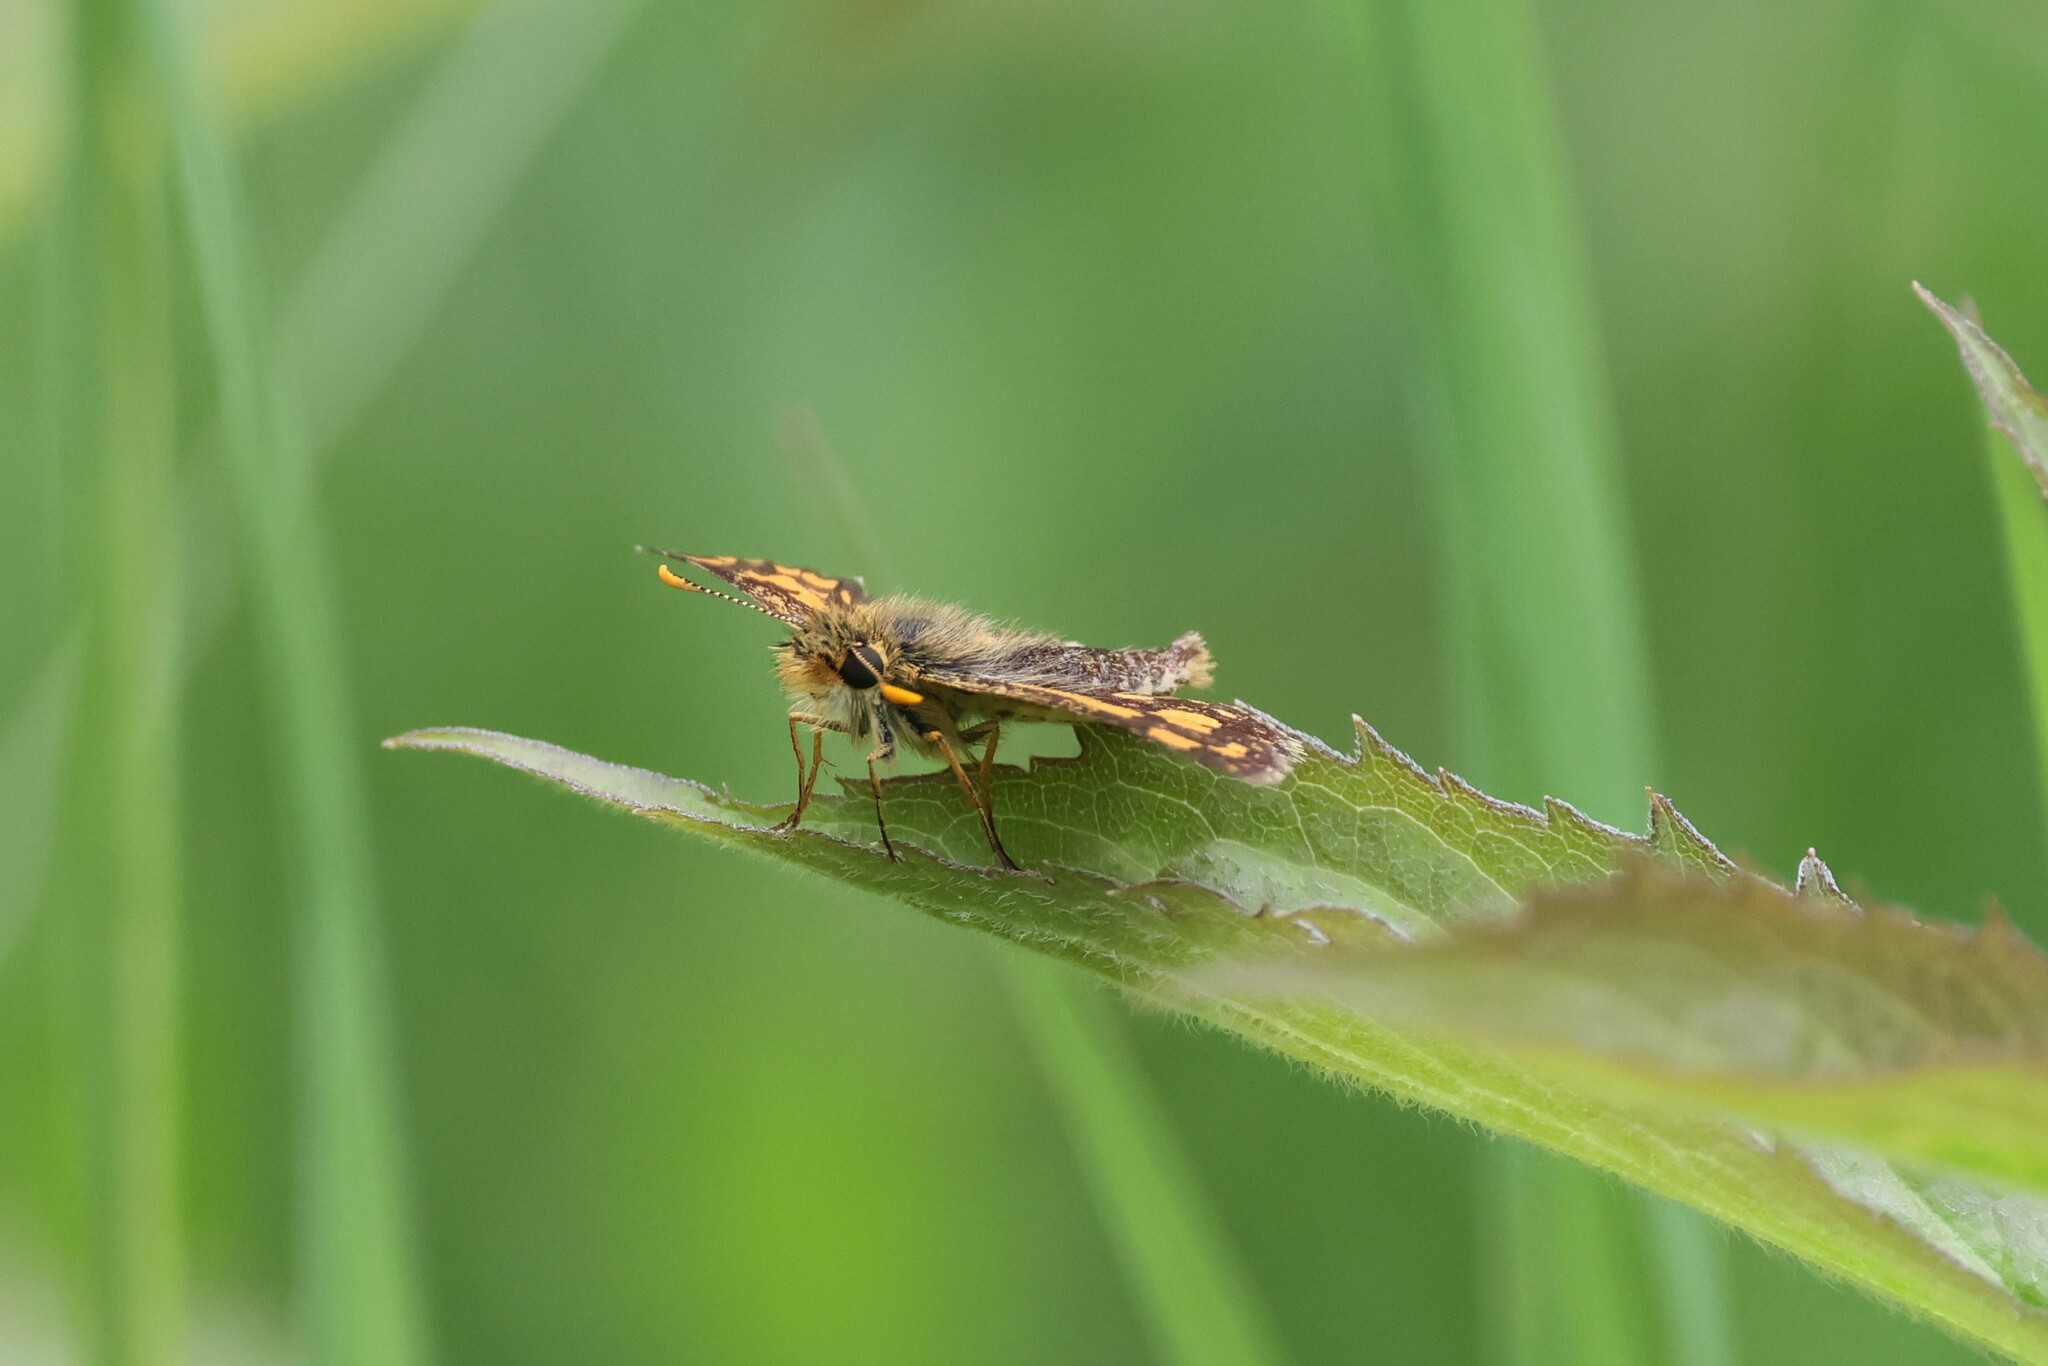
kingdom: Animalia
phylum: Arthropoda
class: Insecta
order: Lepidoptera
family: Hesperiidae
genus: Carterocephalus
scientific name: Carterocephalus mandan
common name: Arctic skipperling
